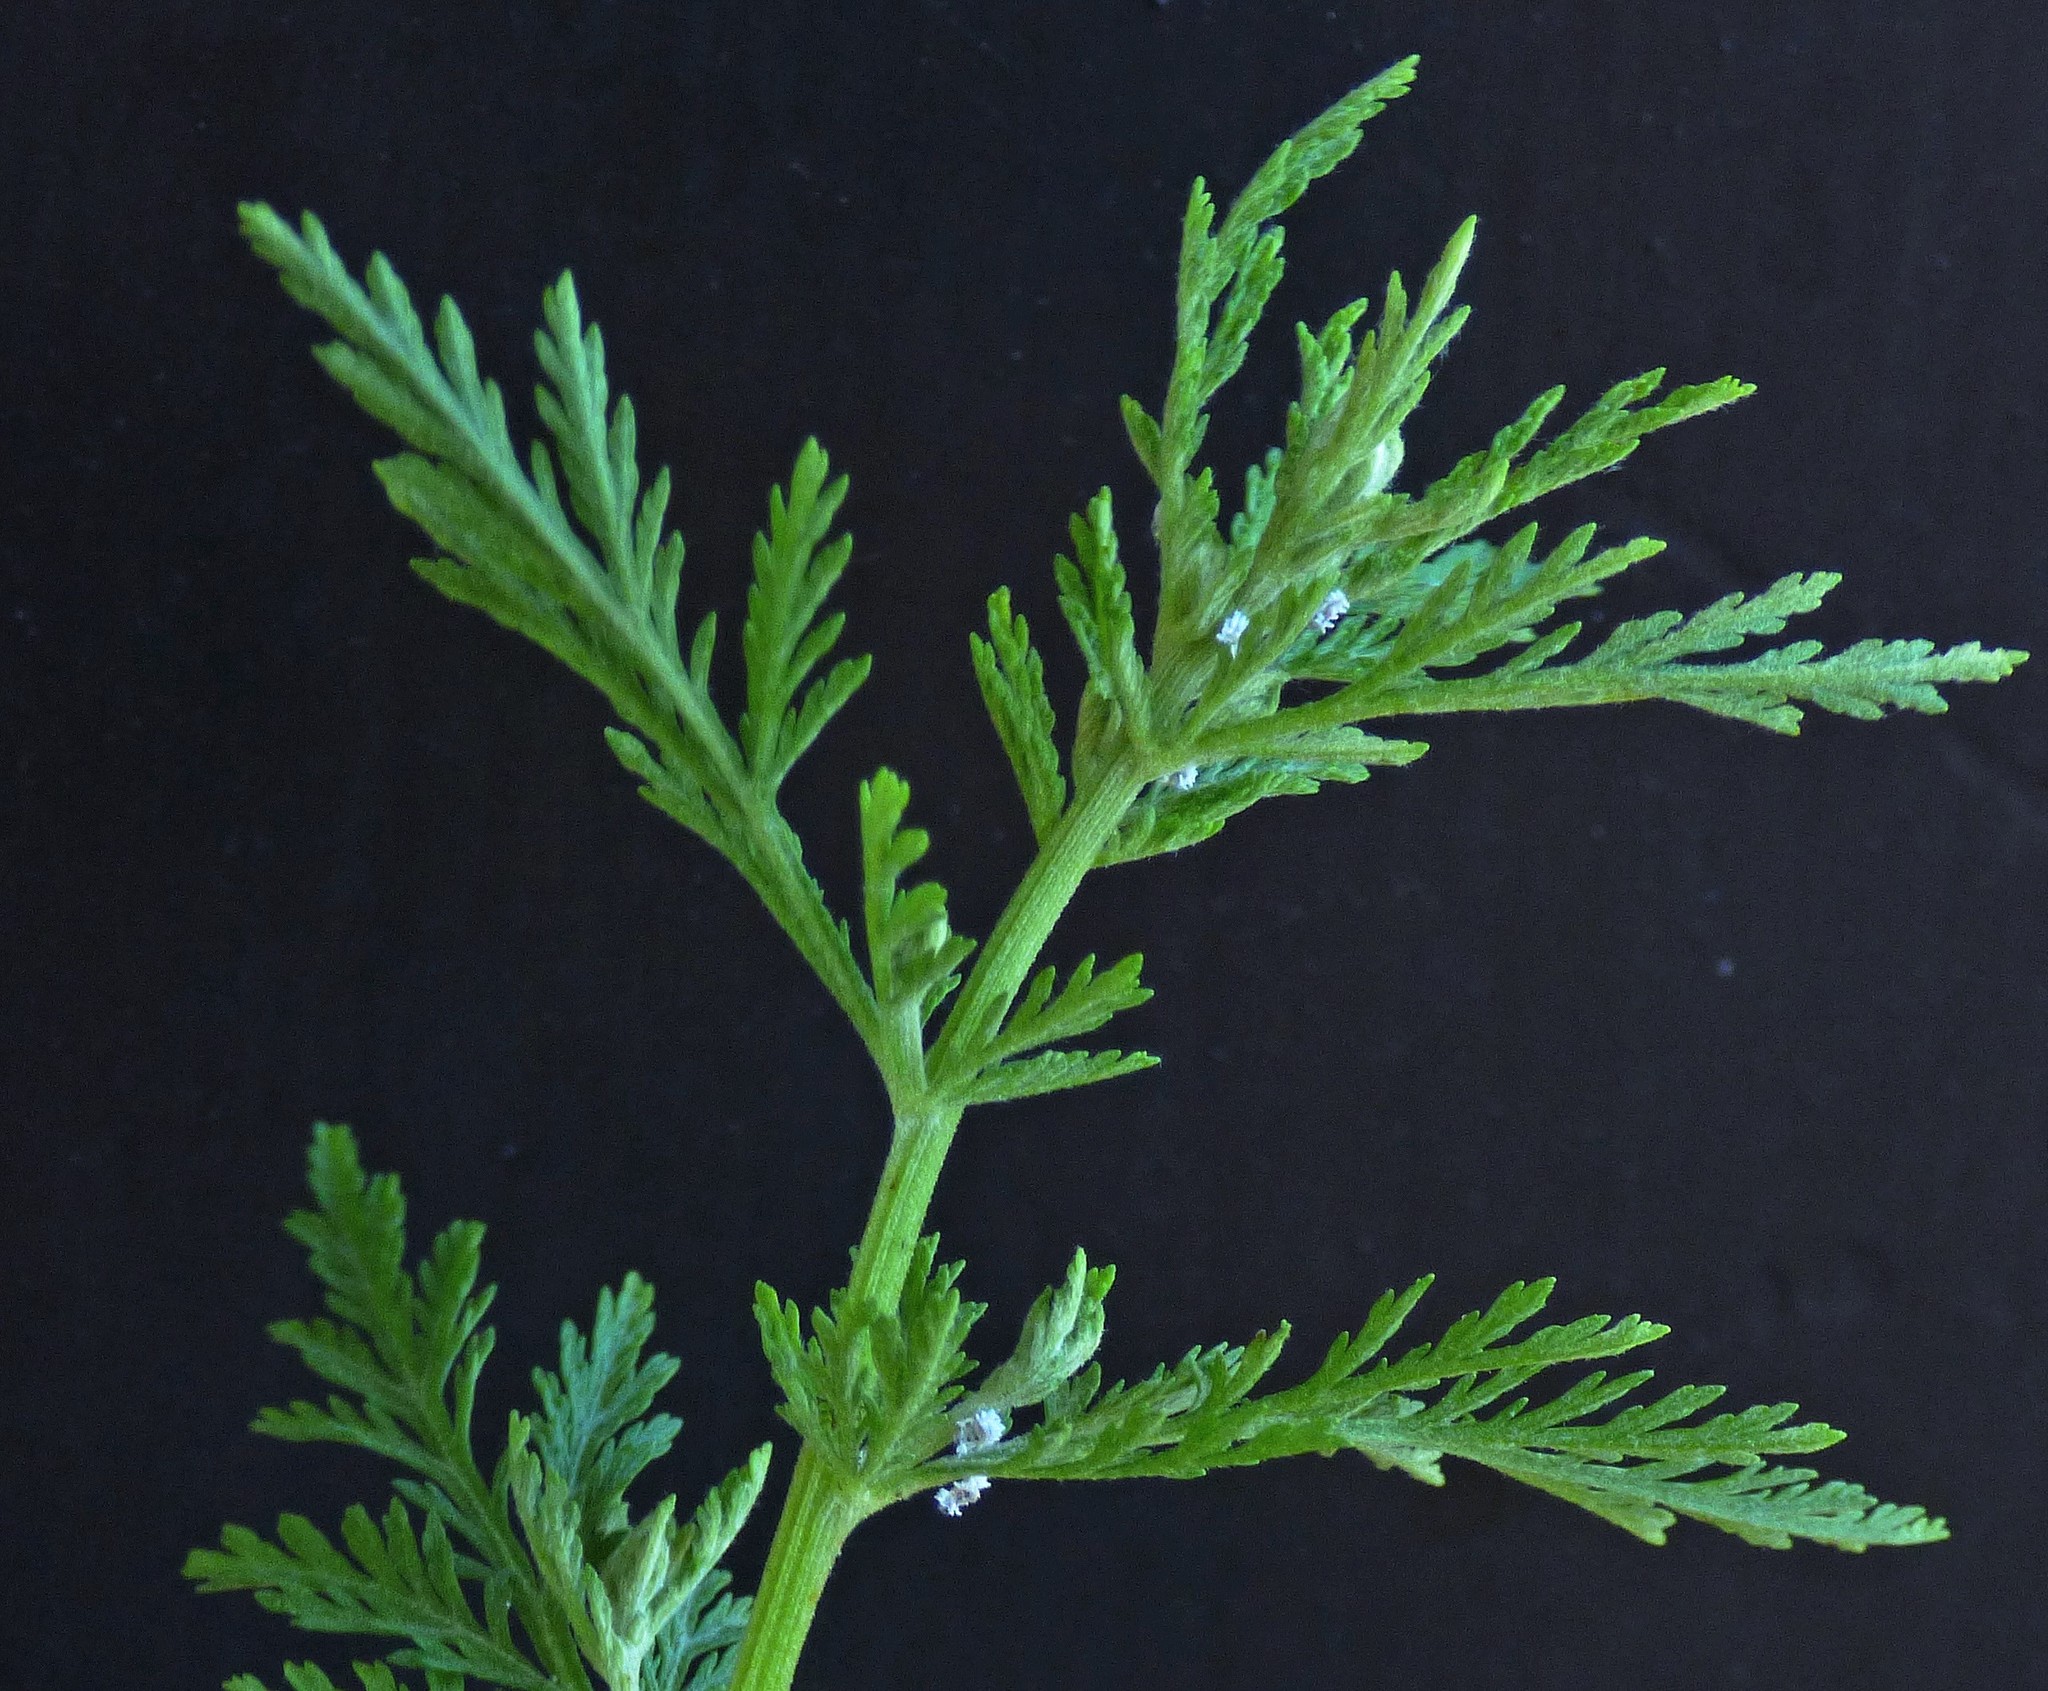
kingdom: Plantae
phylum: Tracheophyta
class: Magnoliopsida
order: Asterales
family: Asteraceae
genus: Artemisia
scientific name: Artemisia annua
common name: Sweet sagewort
